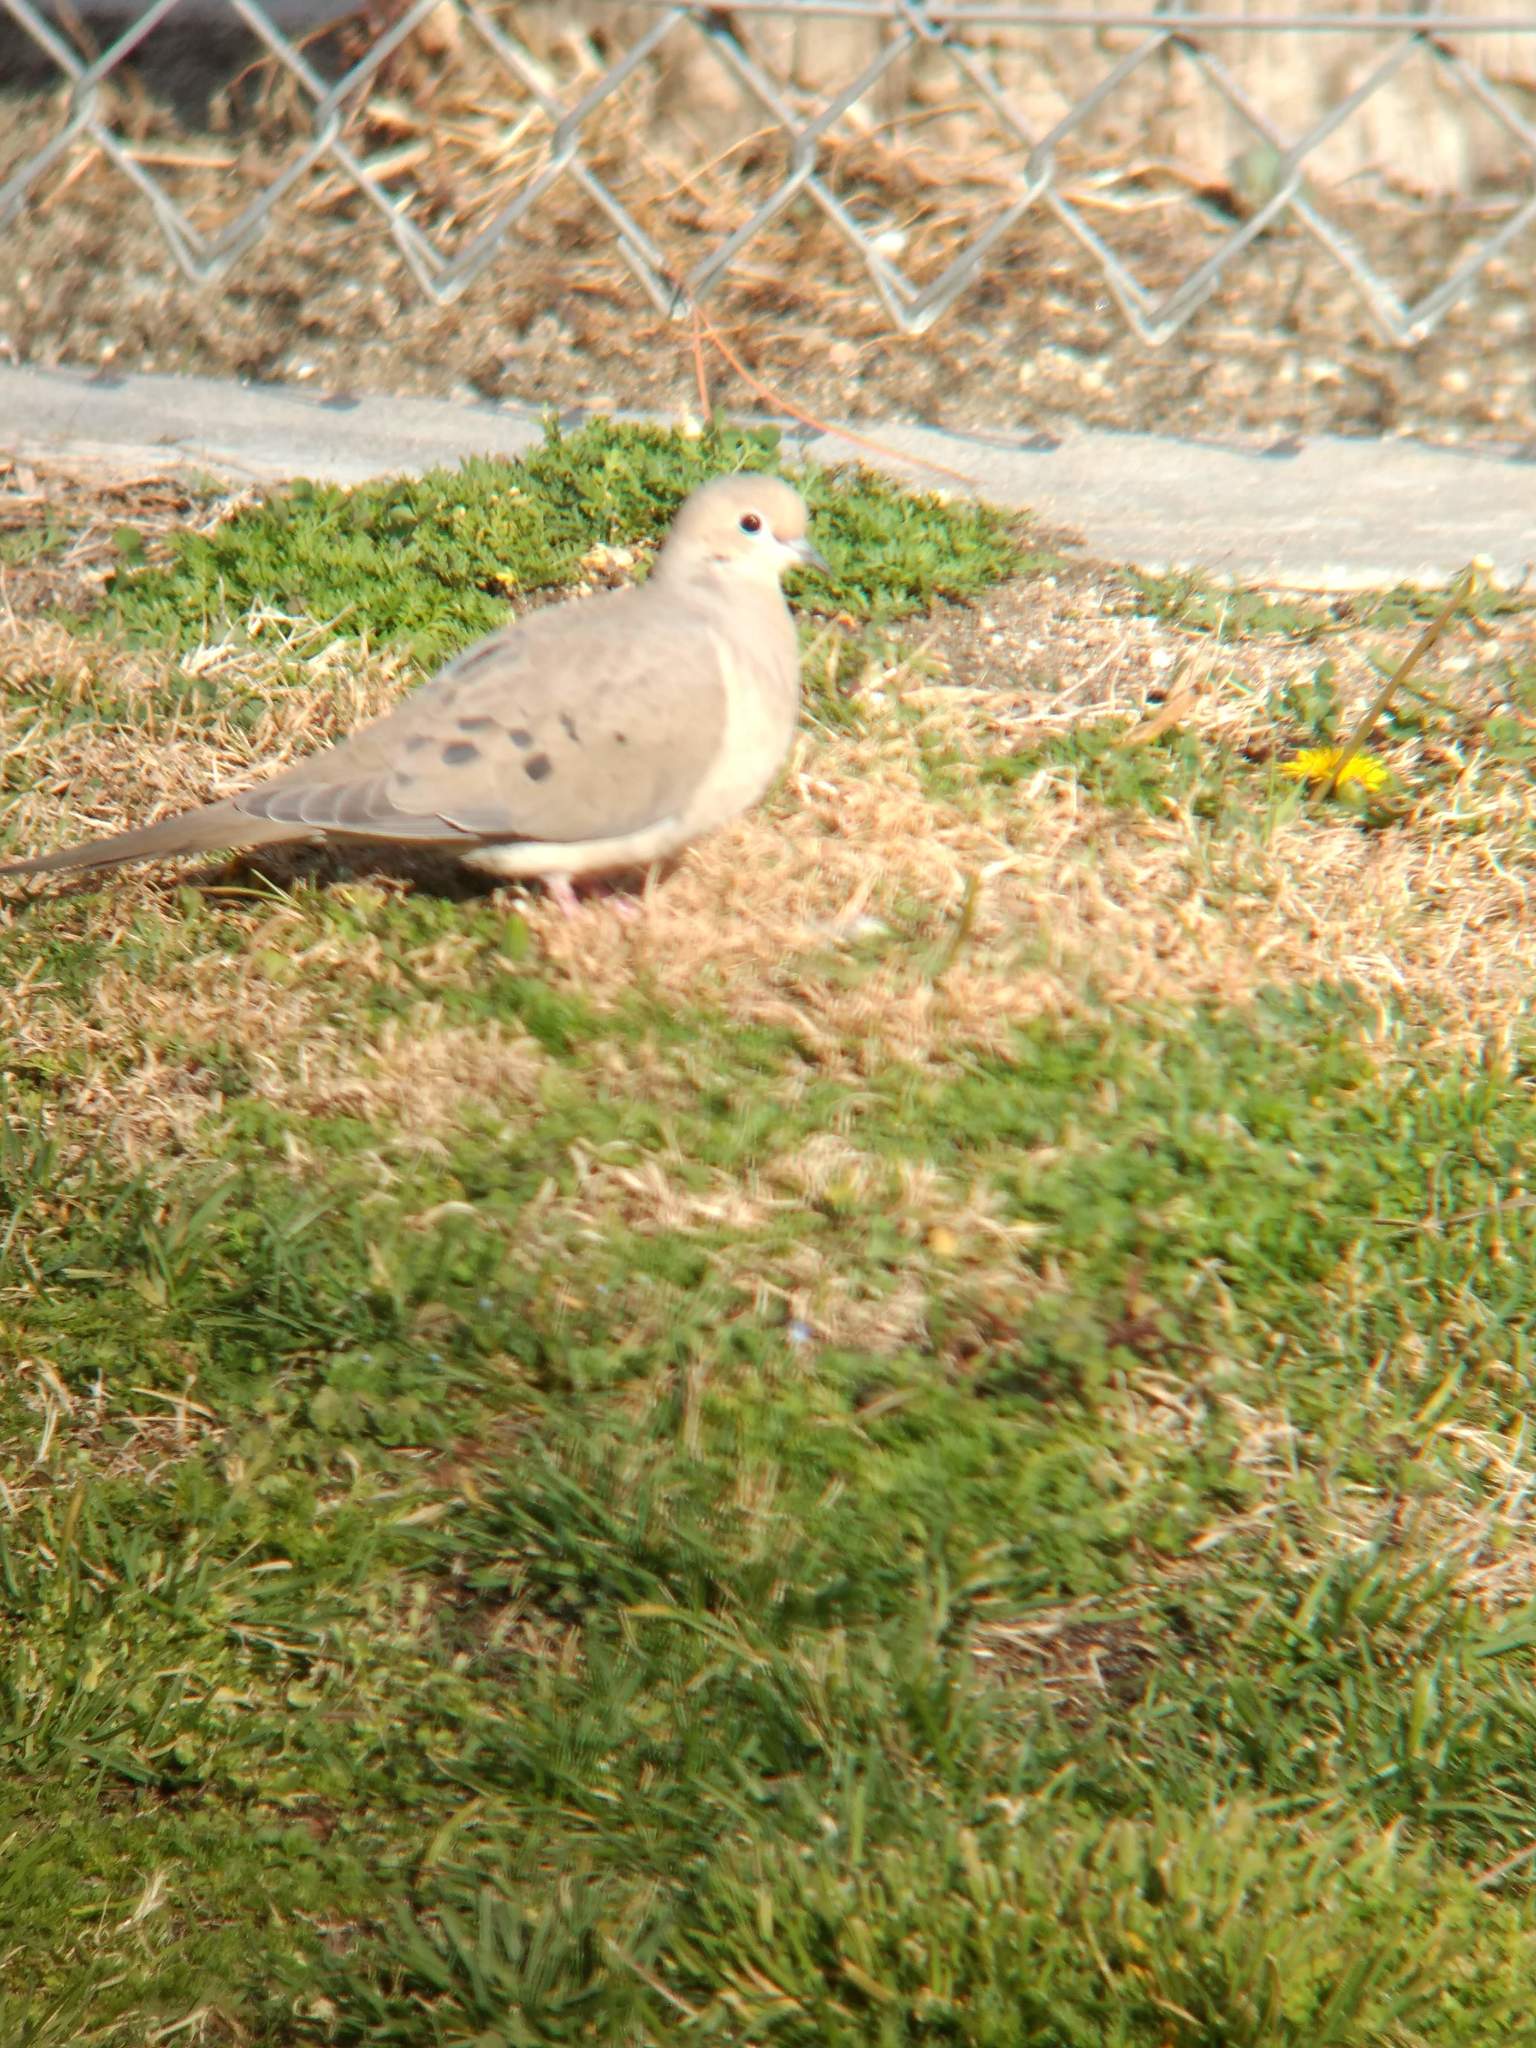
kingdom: Animalia
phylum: Chordata
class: Aves
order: Columbiformes
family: Columbidae
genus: Zenaida
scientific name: Zenaida macroura
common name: Mourning dove
